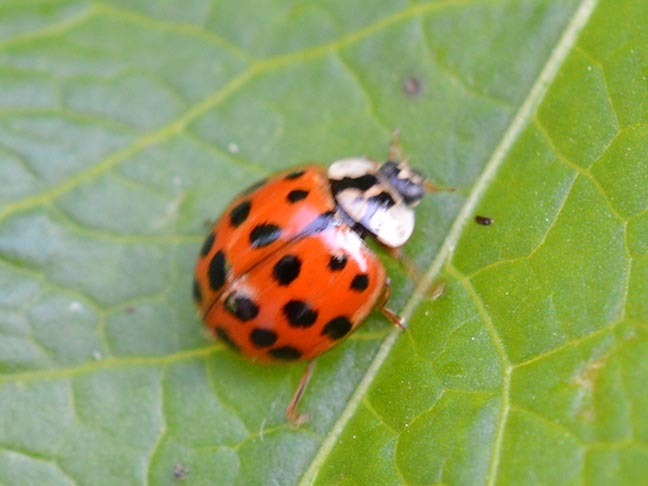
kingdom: Animalia
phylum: Arthropoda
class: Insecta
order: Coleoptera
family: Coccinellidae
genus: Harmonia
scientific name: Harmonia axyridis
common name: Harlequin ladybird
